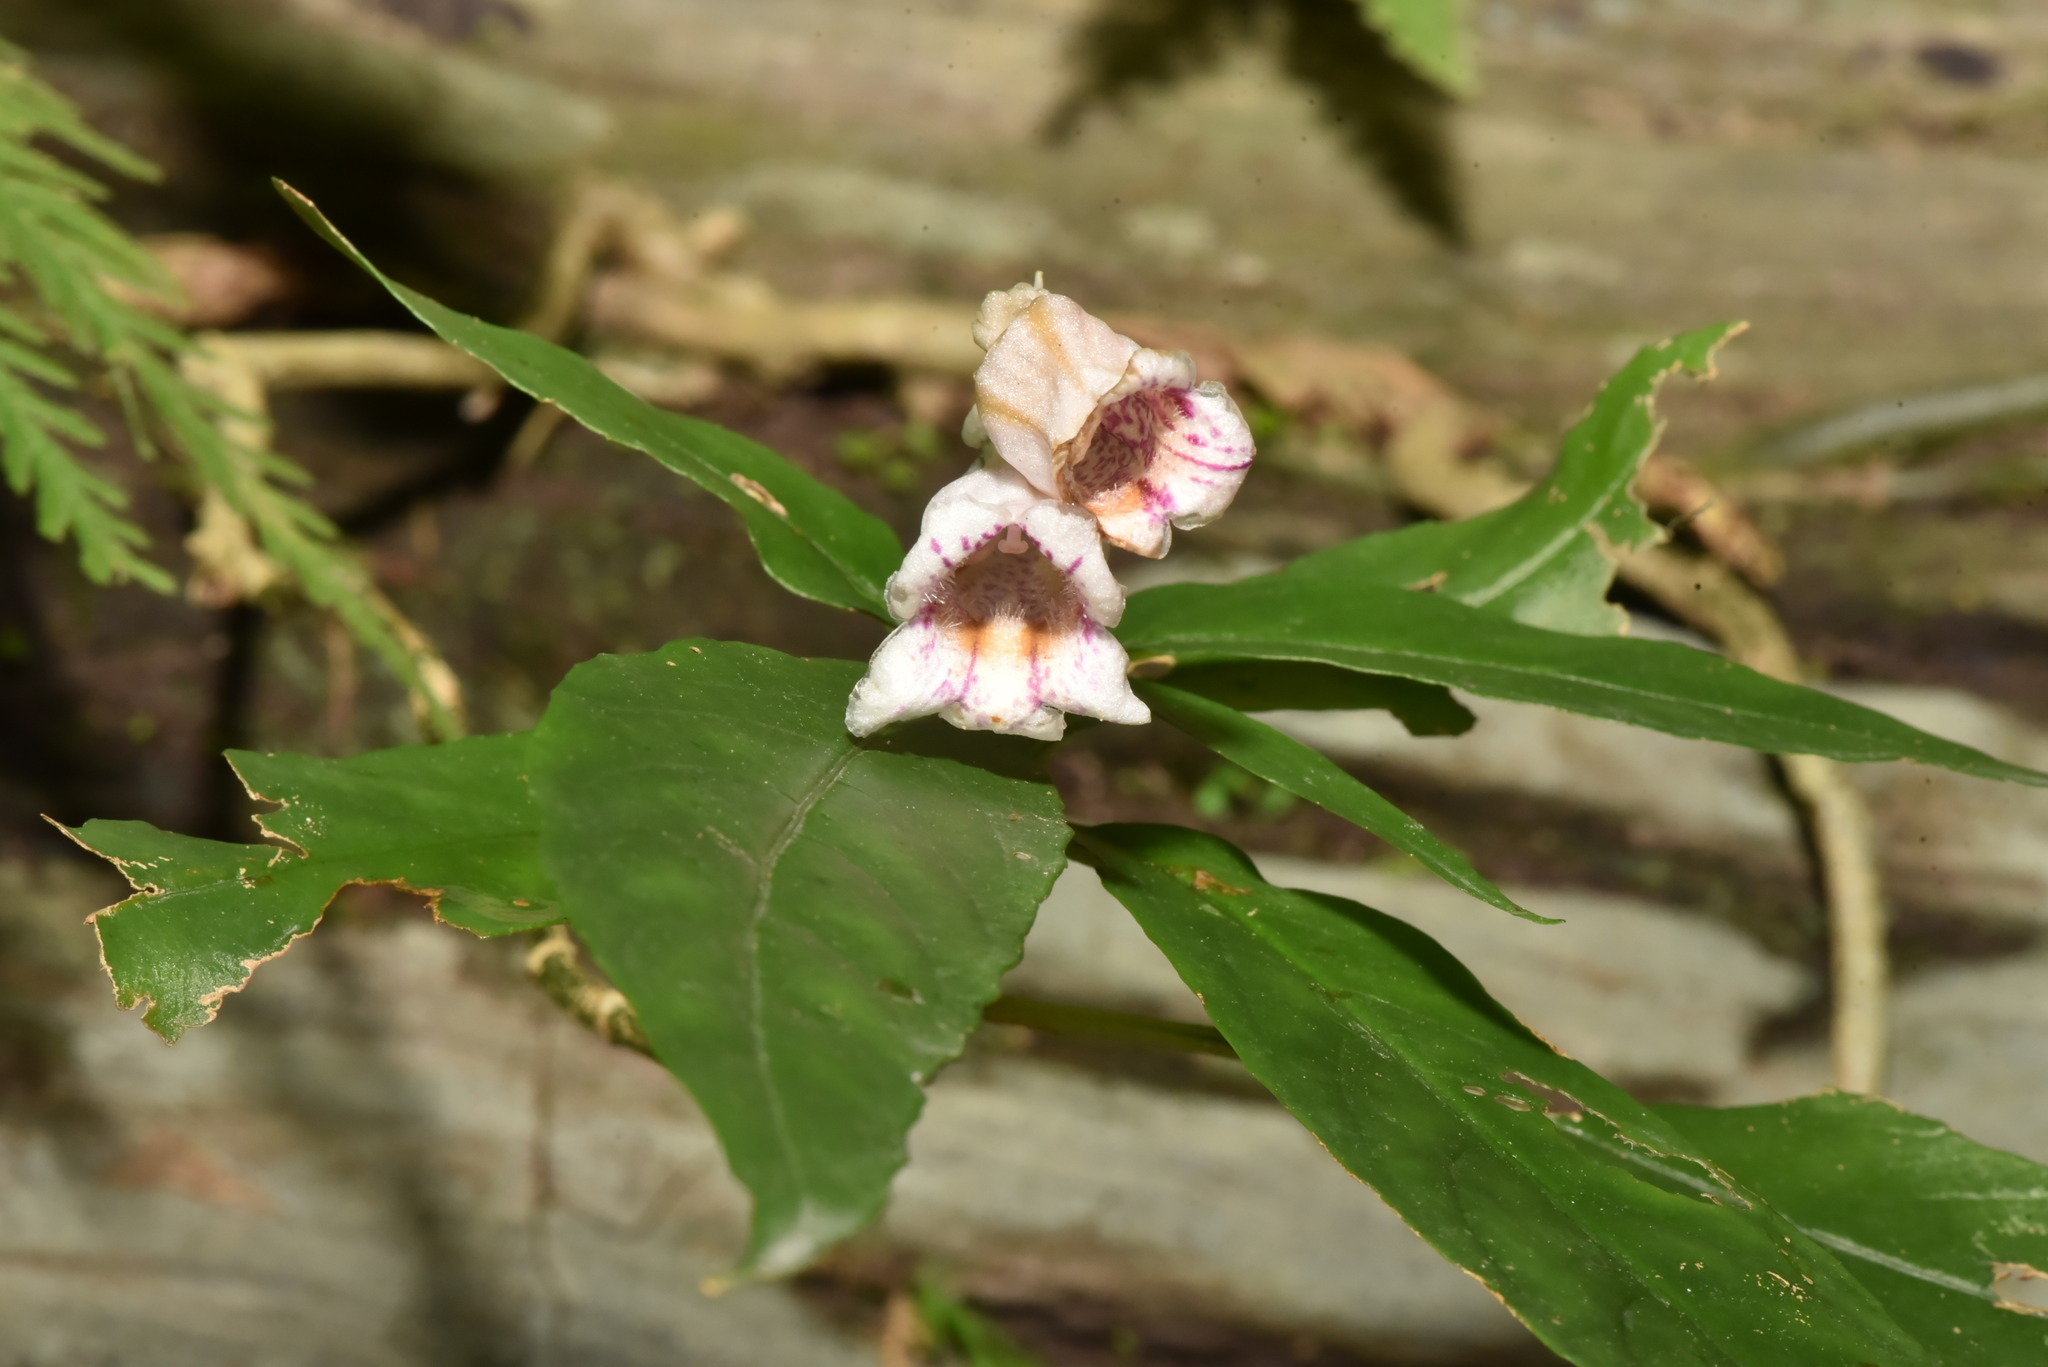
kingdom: Plantae
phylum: Tracheophyta
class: Magnoliopsida
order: Lamiales
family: Gesneriaceae
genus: Hemiboea
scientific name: Hemiboea bicornuta
